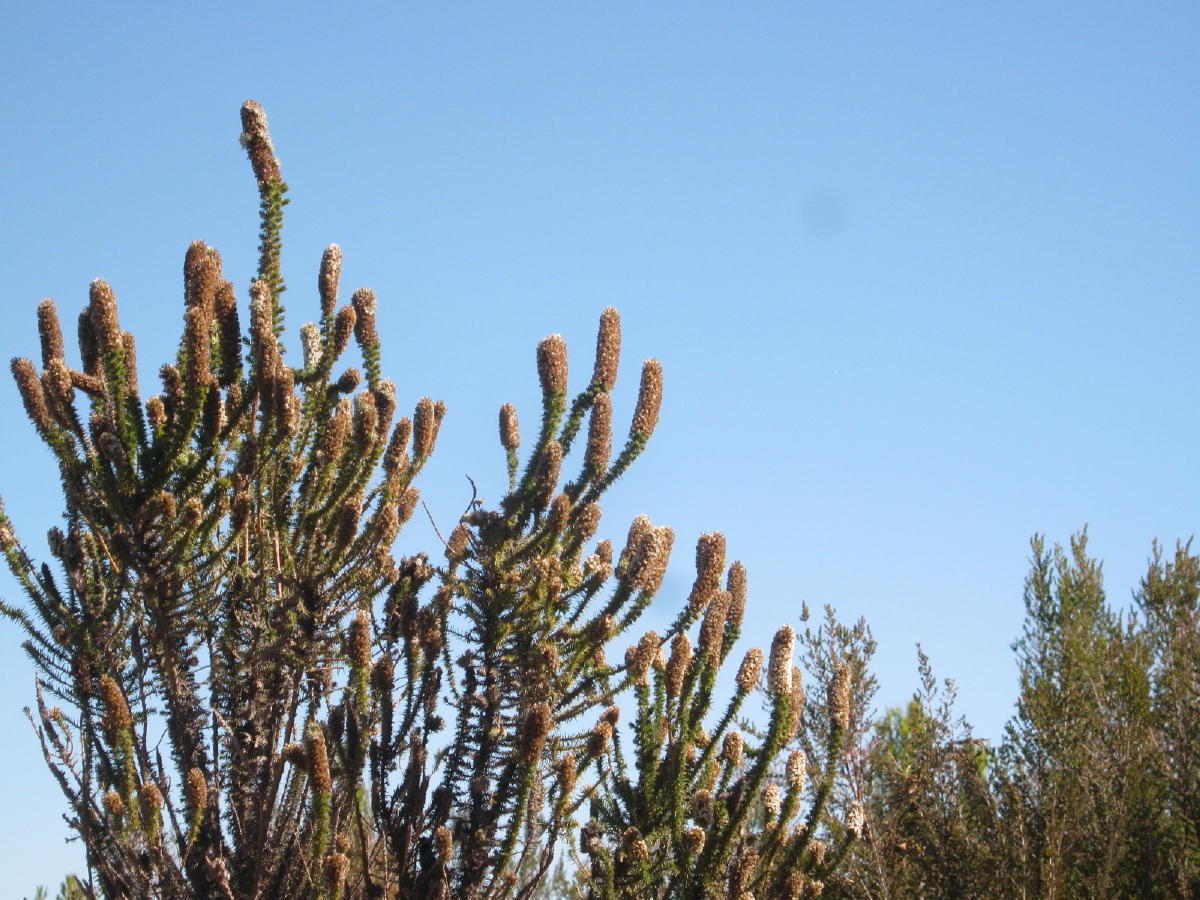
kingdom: Plantae
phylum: Tracheophyta
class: Magnoliopsida
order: Asterales
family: Asteraceae
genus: Stoebe
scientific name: Stoebe alopecuroides
